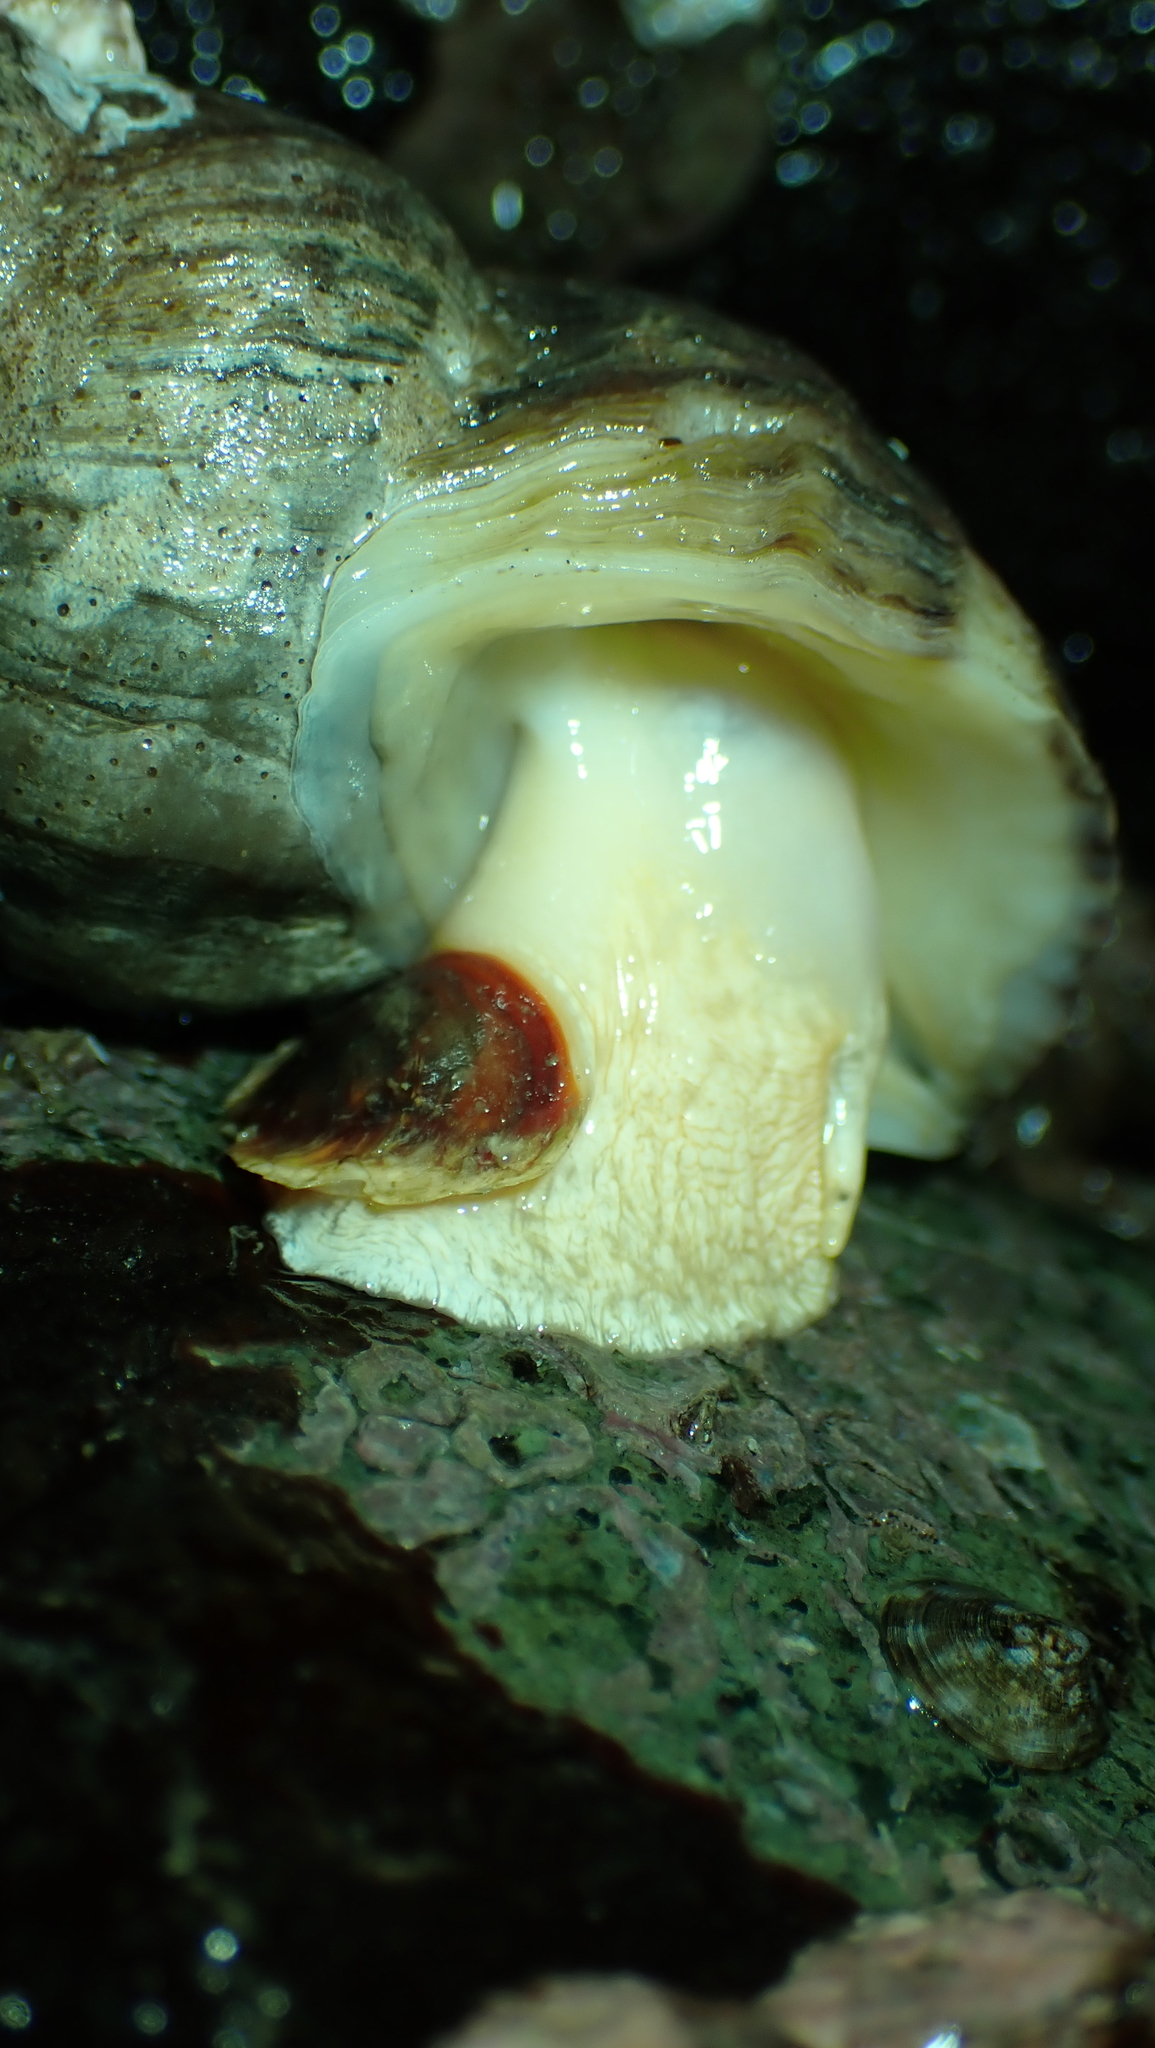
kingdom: Animalia
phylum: Mollusca
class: Gastropoda
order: Neogastropoda
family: Muricidae
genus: Nucella
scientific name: Nucella lamellosa
